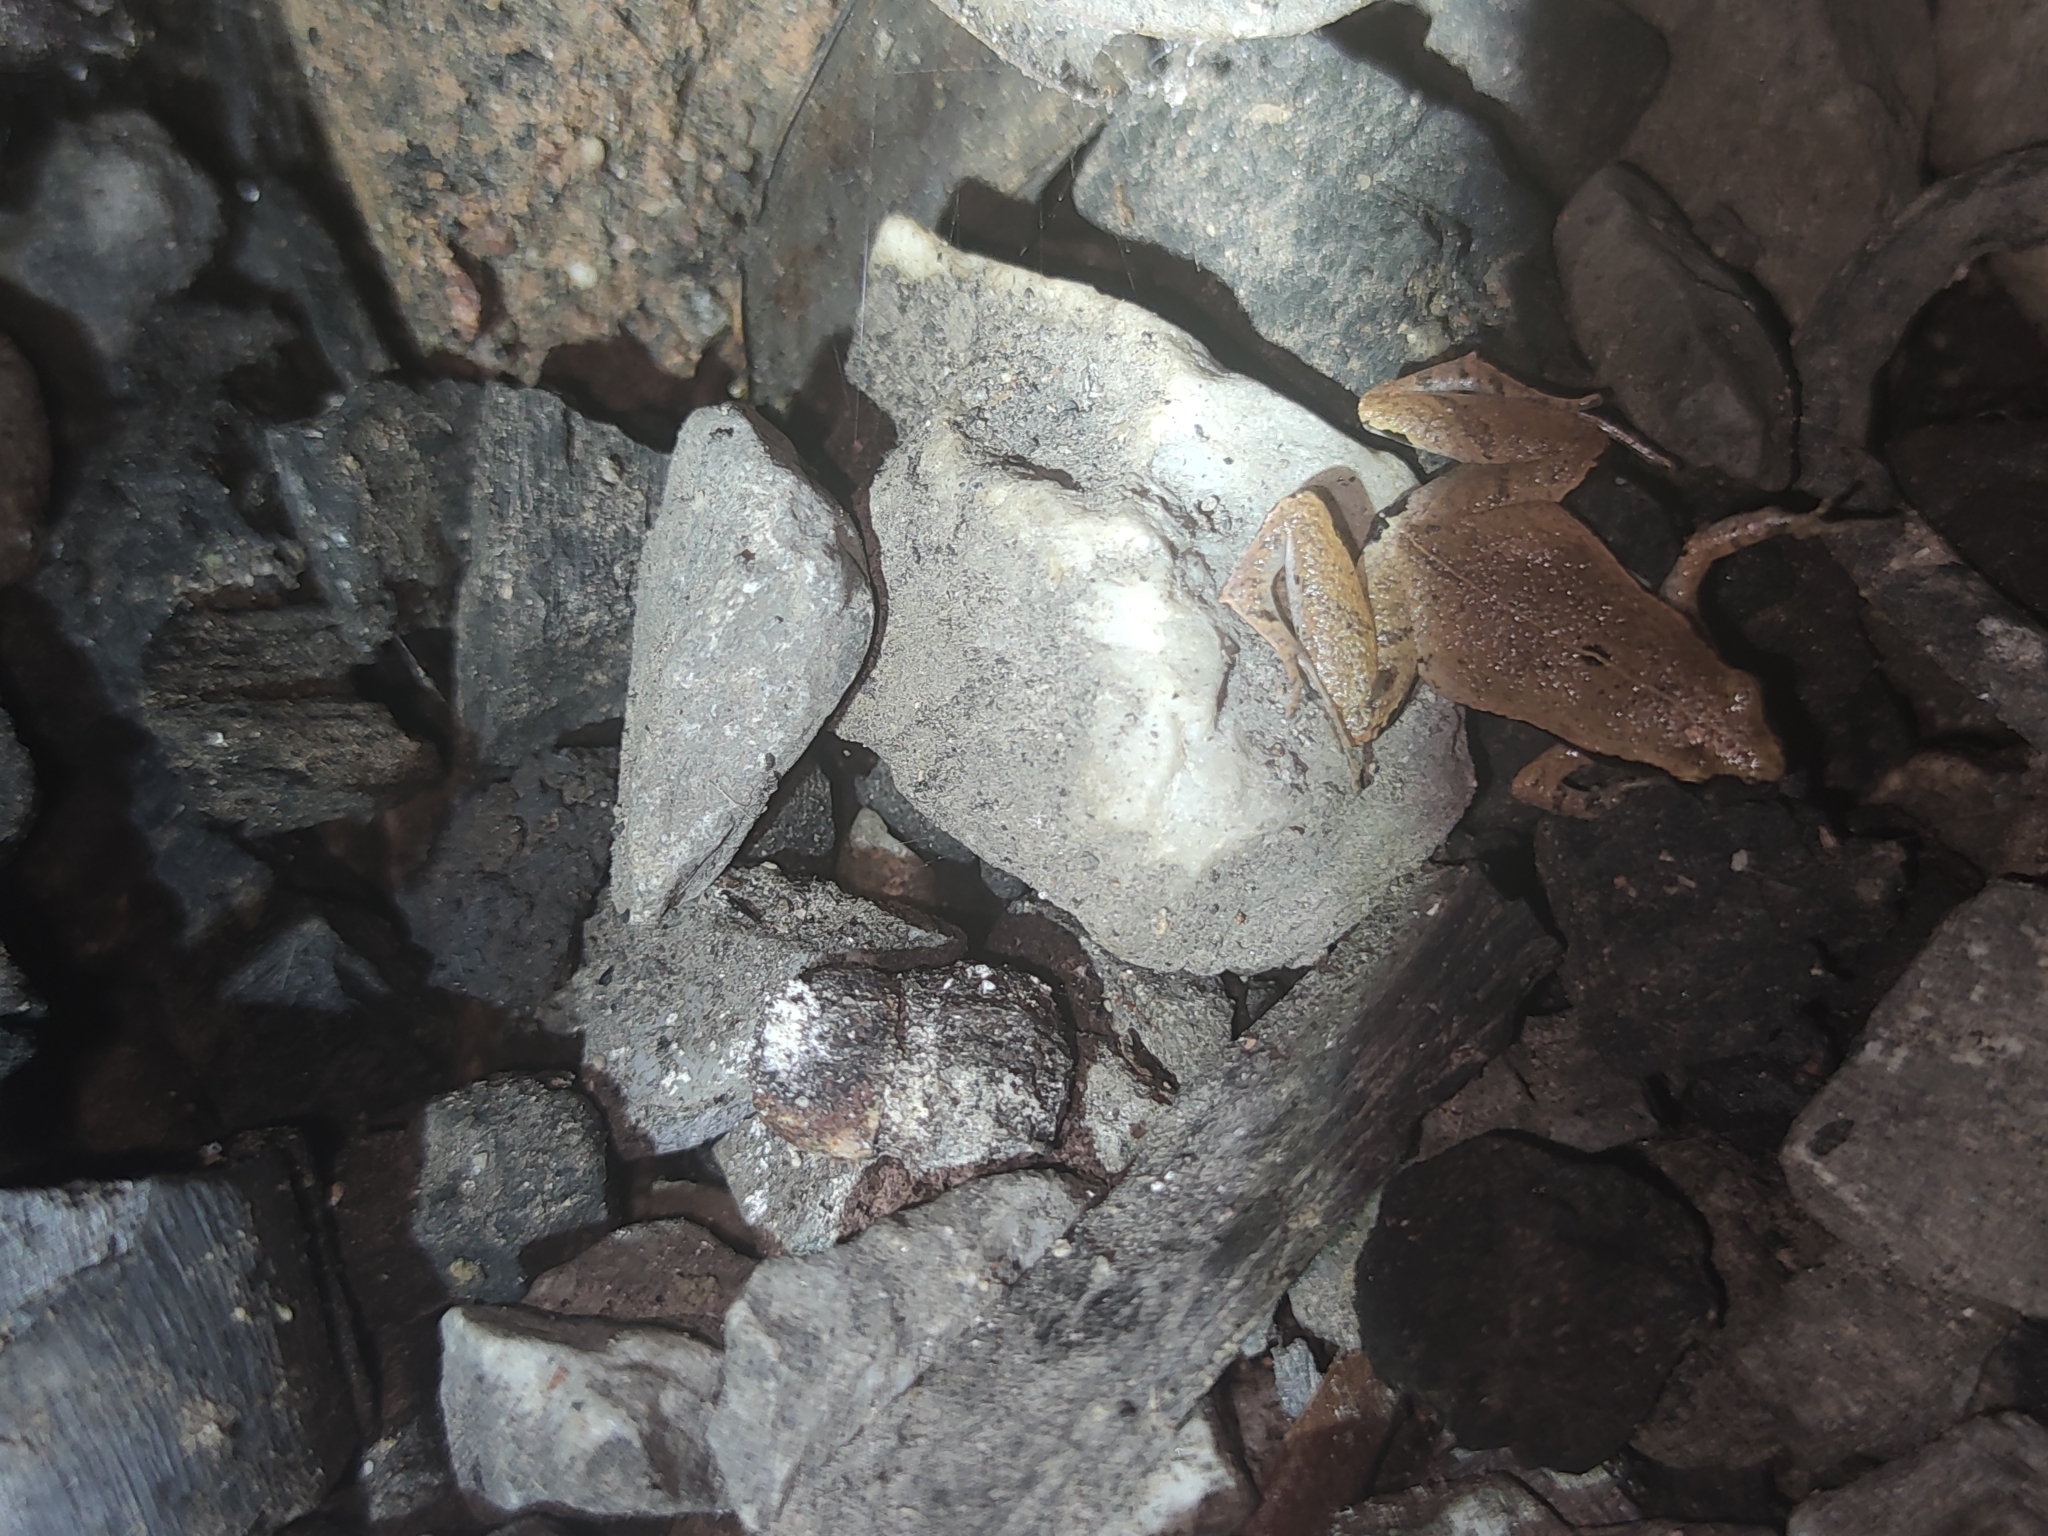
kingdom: Animalia
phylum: Chordata
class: Amphibia
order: Anura
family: Microhylidae
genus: Microhyla
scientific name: Microhyla heymonsi
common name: Taiwan rice frog,dark sided chorus frog
